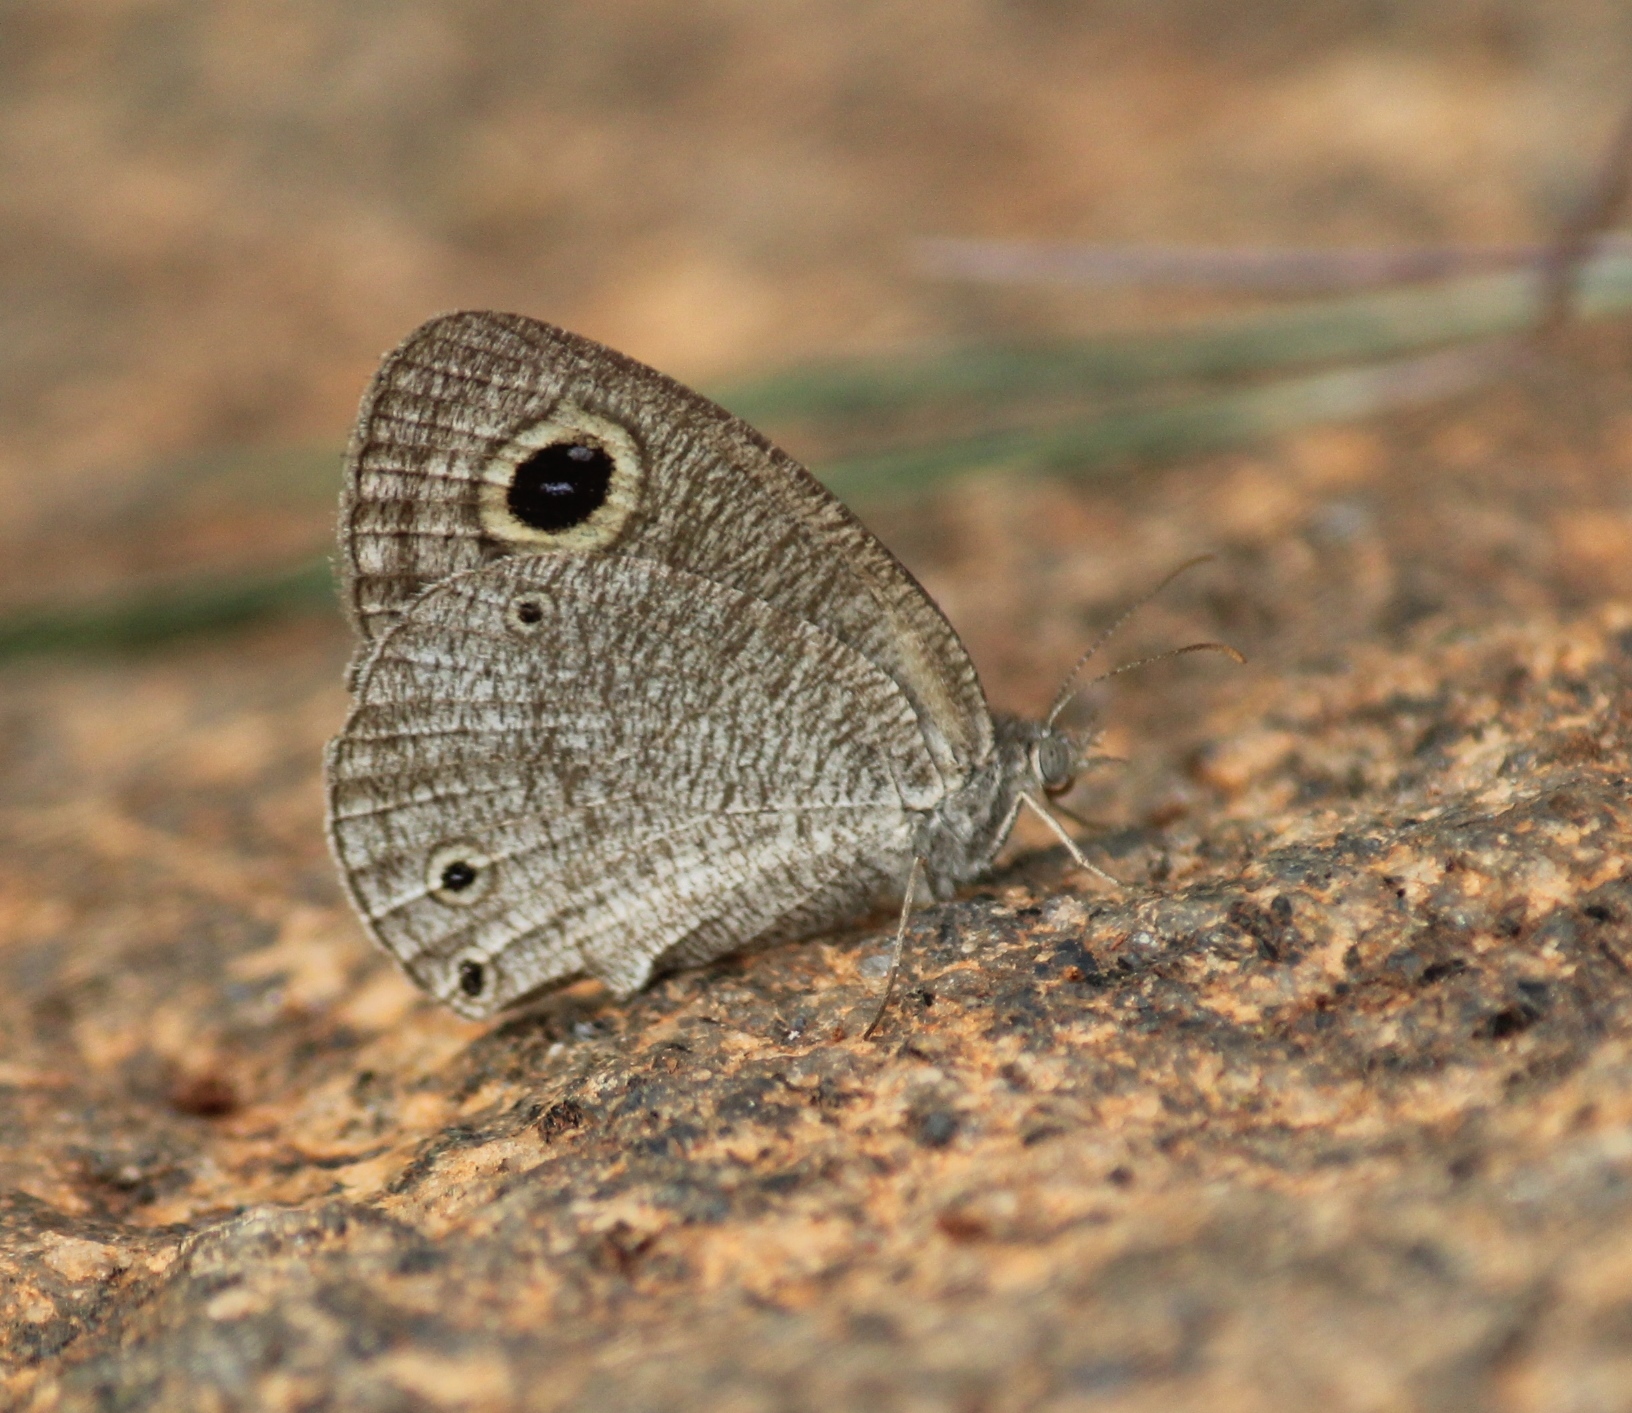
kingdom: Animalia
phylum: Arthropoda
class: Insecta
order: Lepidoptera
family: Nymphalidae
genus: Ypthima
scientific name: Ypthima asterope
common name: African ringlet
